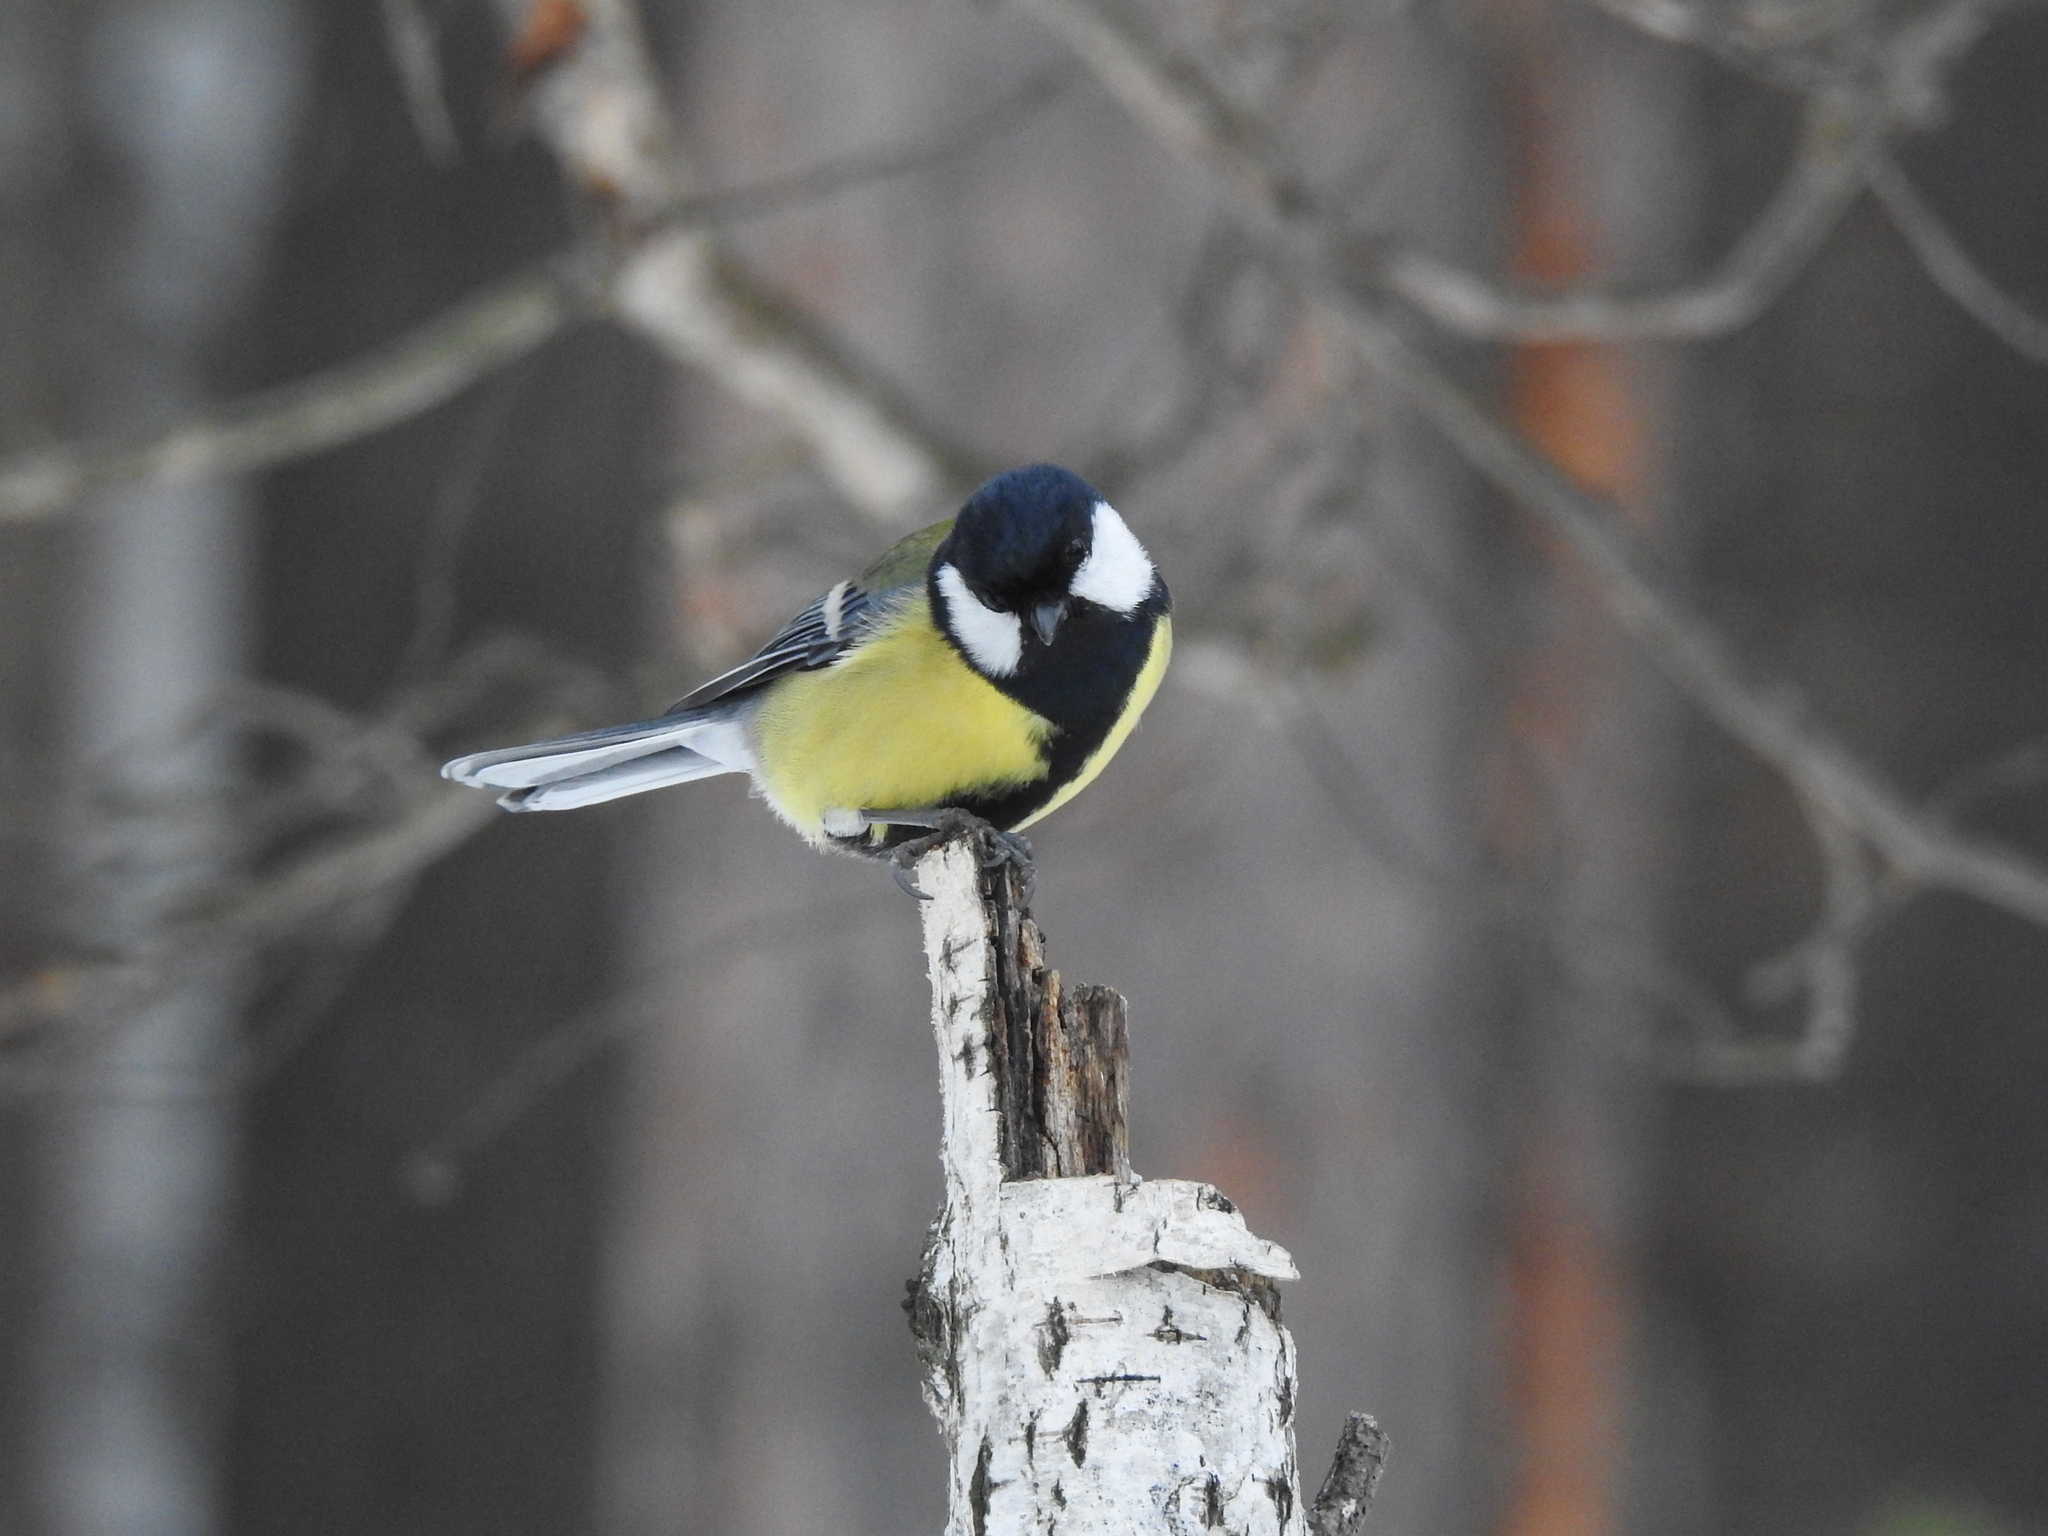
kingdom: Animalia
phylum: Chordata
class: Aves
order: Passeriformes
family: Paridae
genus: Parus
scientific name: Parus major
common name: Great tit
